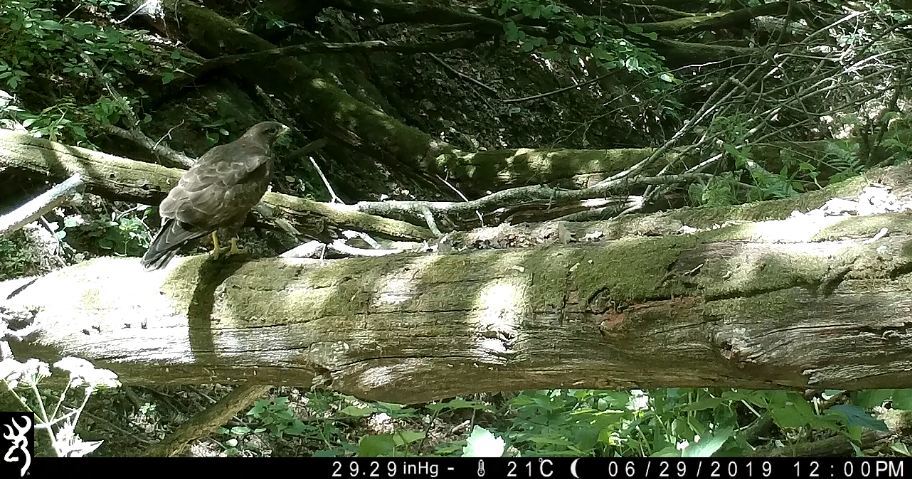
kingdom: Animalia
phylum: Chordata
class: Aves
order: Accipitriformes
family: Accipitridae
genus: Buteo
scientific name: Buteo buteo
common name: Common buzzard
